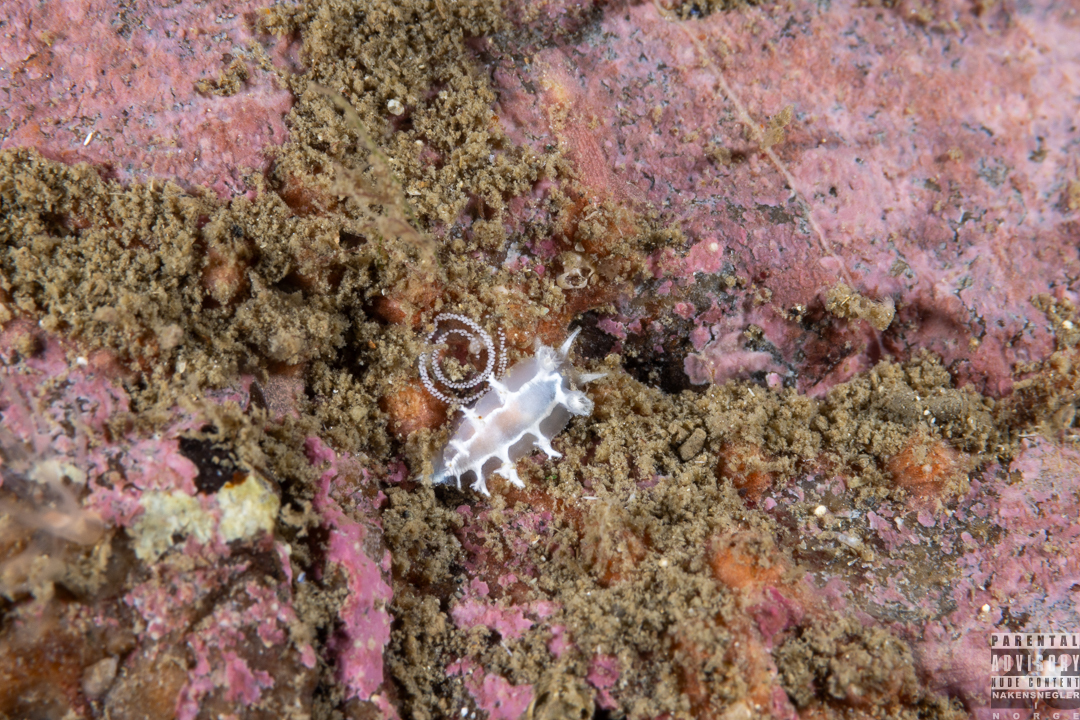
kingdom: Animalia
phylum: Mollusca
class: Gastropoda
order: Nudibranchia
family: Tritoniidae
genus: Duvaucelia
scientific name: Duvaucelia lineata
